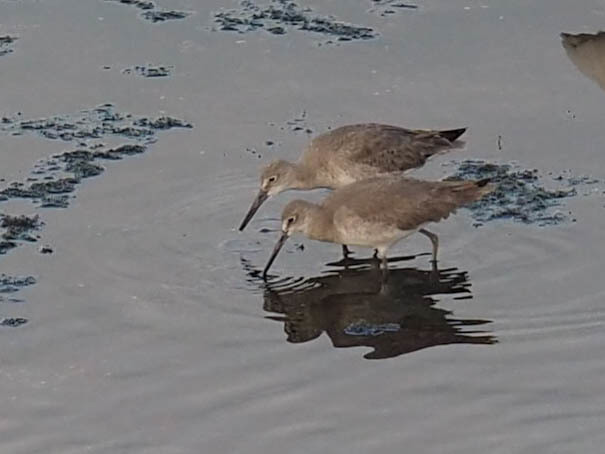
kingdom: Animalia
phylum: Chordata
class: Aves
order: Charadriiformes
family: Scolopacidae
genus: Tringa
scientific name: Tringa semipalmata
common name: Willet
